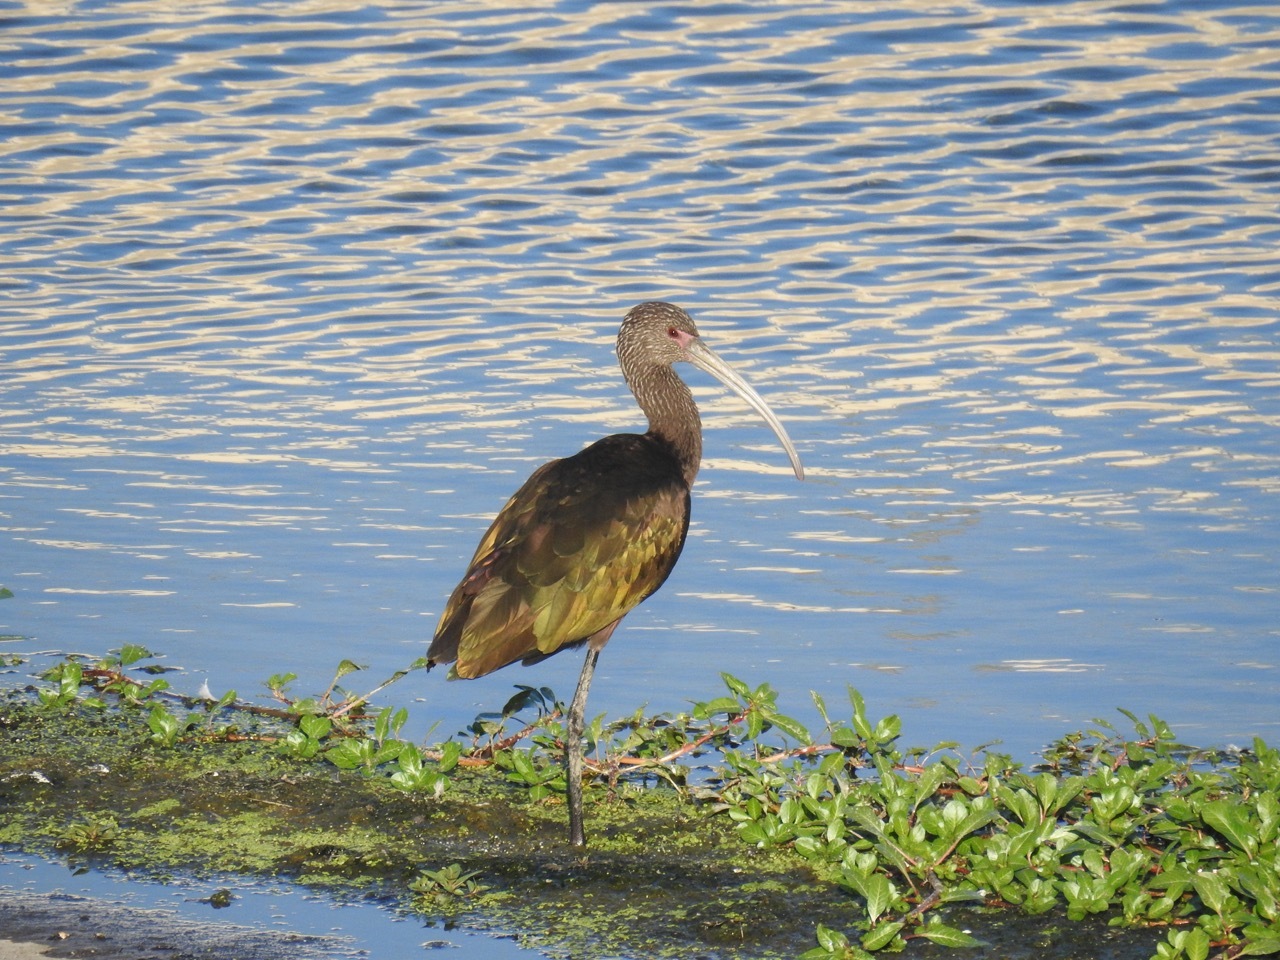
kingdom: Animalia
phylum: Chordata
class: Aves
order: Pelecaniformes
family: Threskiornithidae
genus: Plegadis
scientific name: Plegadis chihi
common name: White-faced ibis
